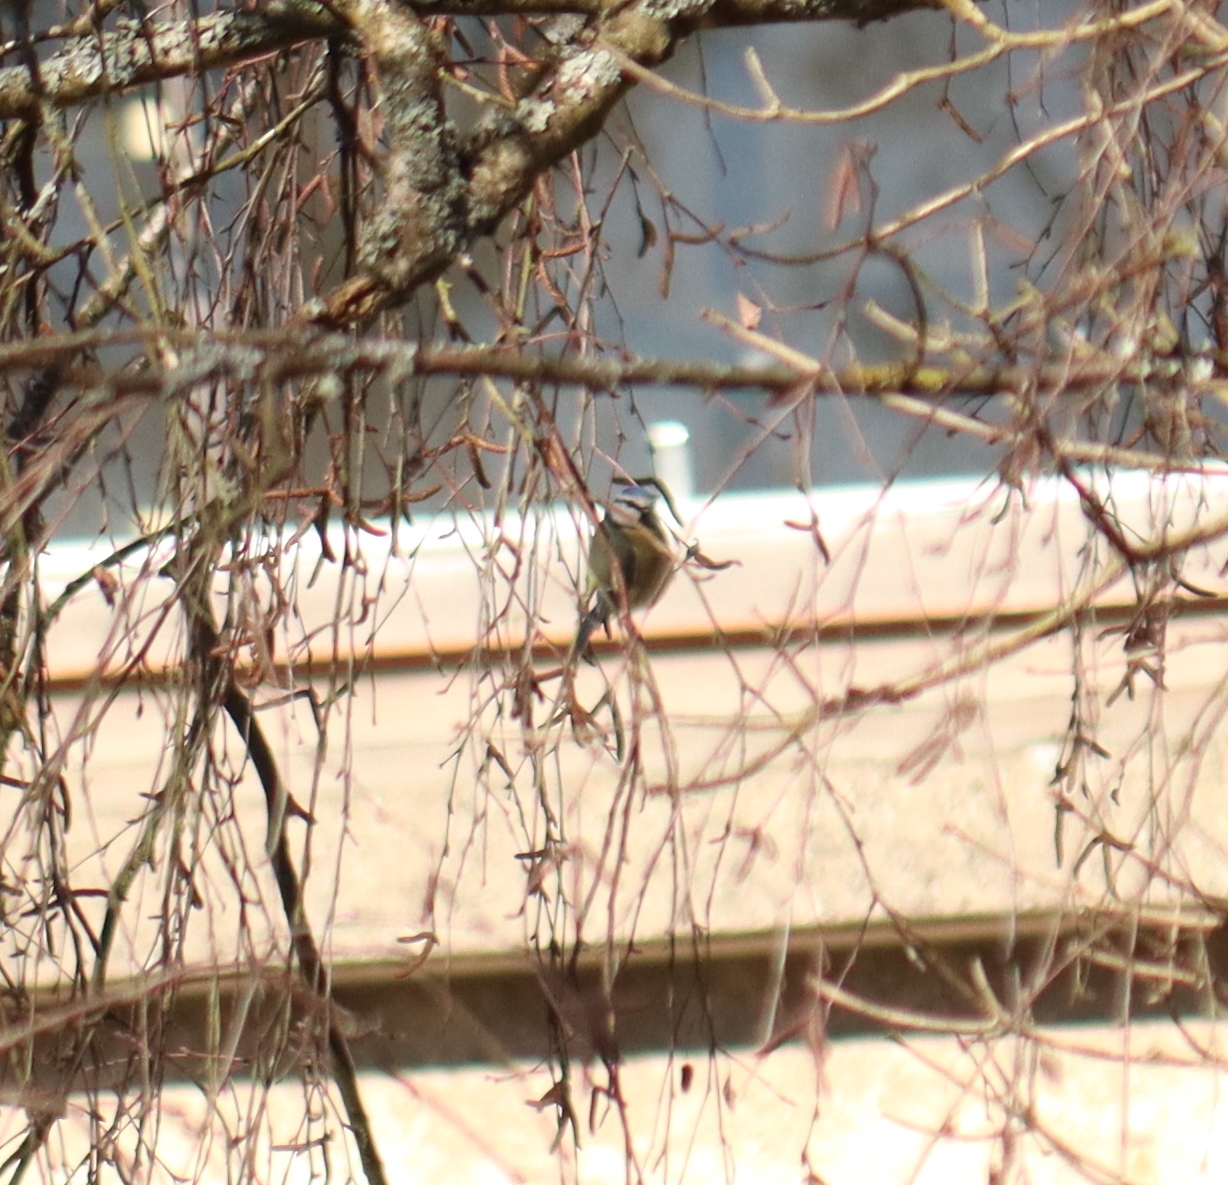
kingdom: Animalia
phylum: Chordata
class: Aves
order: Passeriformes
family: Paridae
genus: Cyanistes
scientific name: Cyanistes caeruleus
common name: Eurasian blue tit
